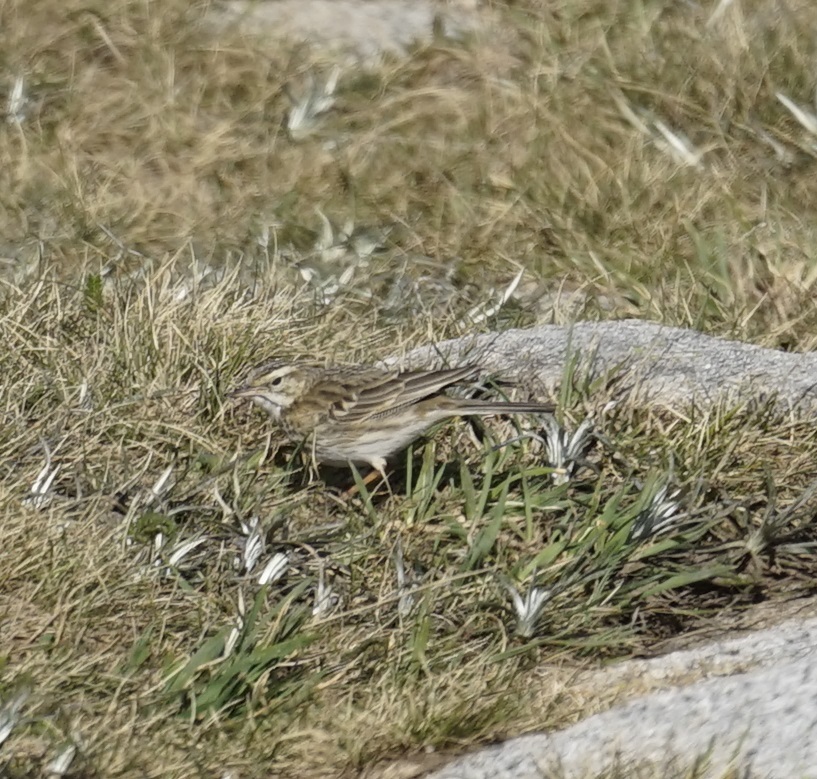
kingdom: Animalia
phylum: Chordata
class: Aves
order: Passeriformes
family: Motacillidae
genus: Anthus
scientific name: Anthus australis
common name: Australian pipit
